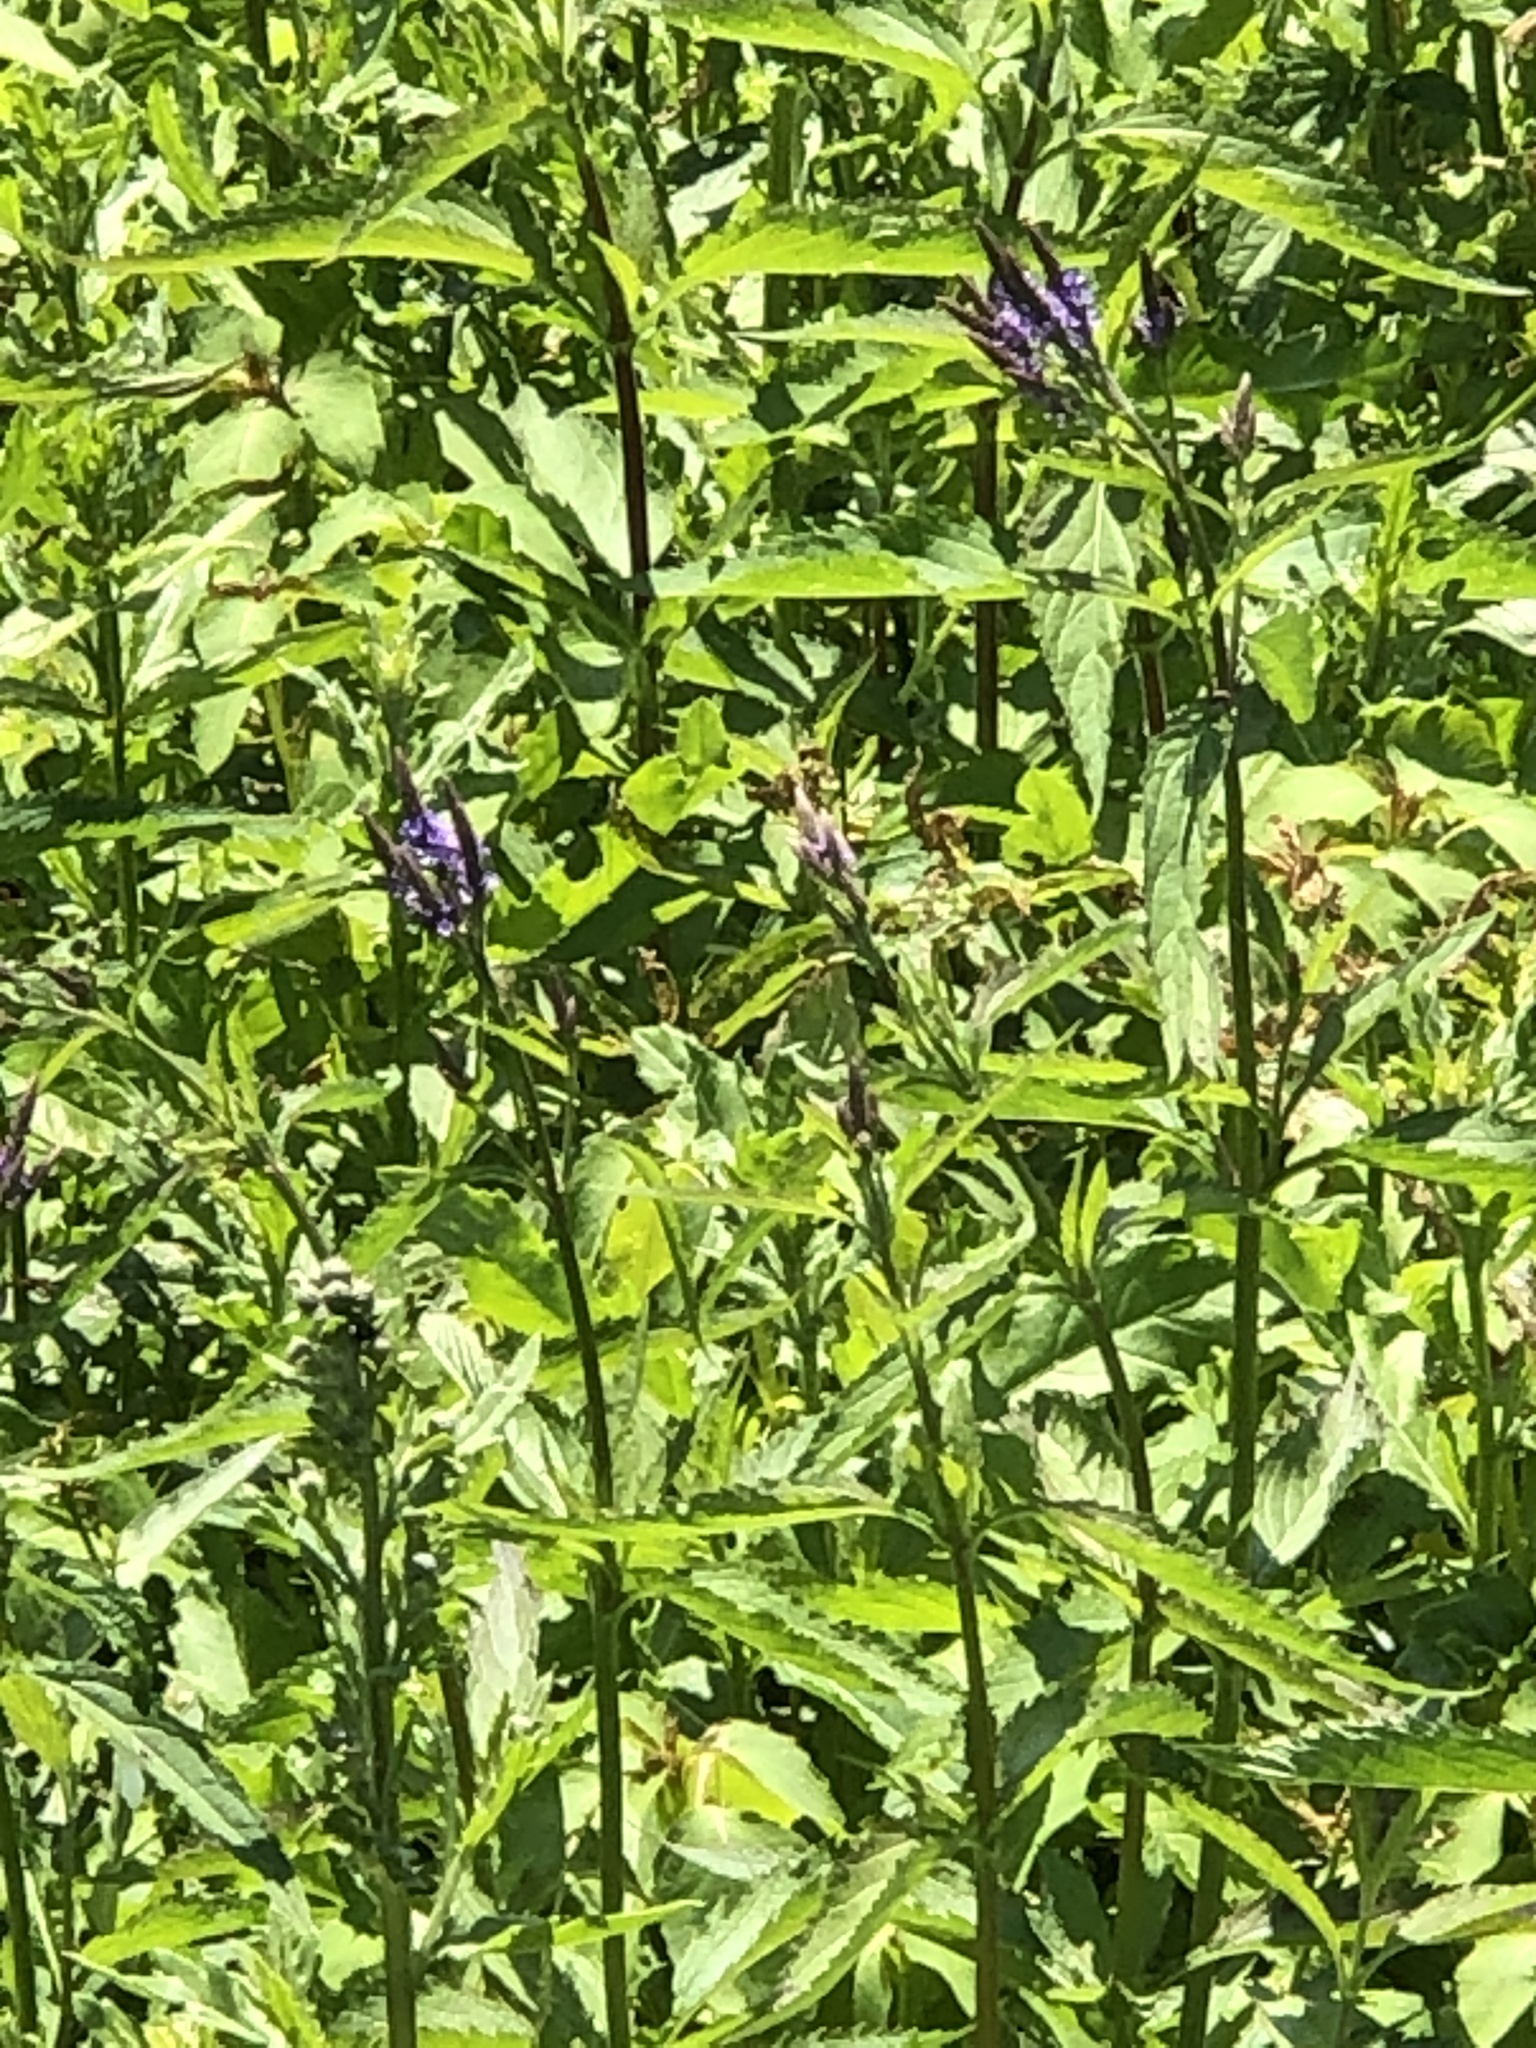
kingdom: Plantae
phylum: Tracheophyta
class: Magnoliopsida
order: Lamiales
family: Verbenaceae
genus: Verbena
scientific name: Verbena hastata
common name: American blue vervain
